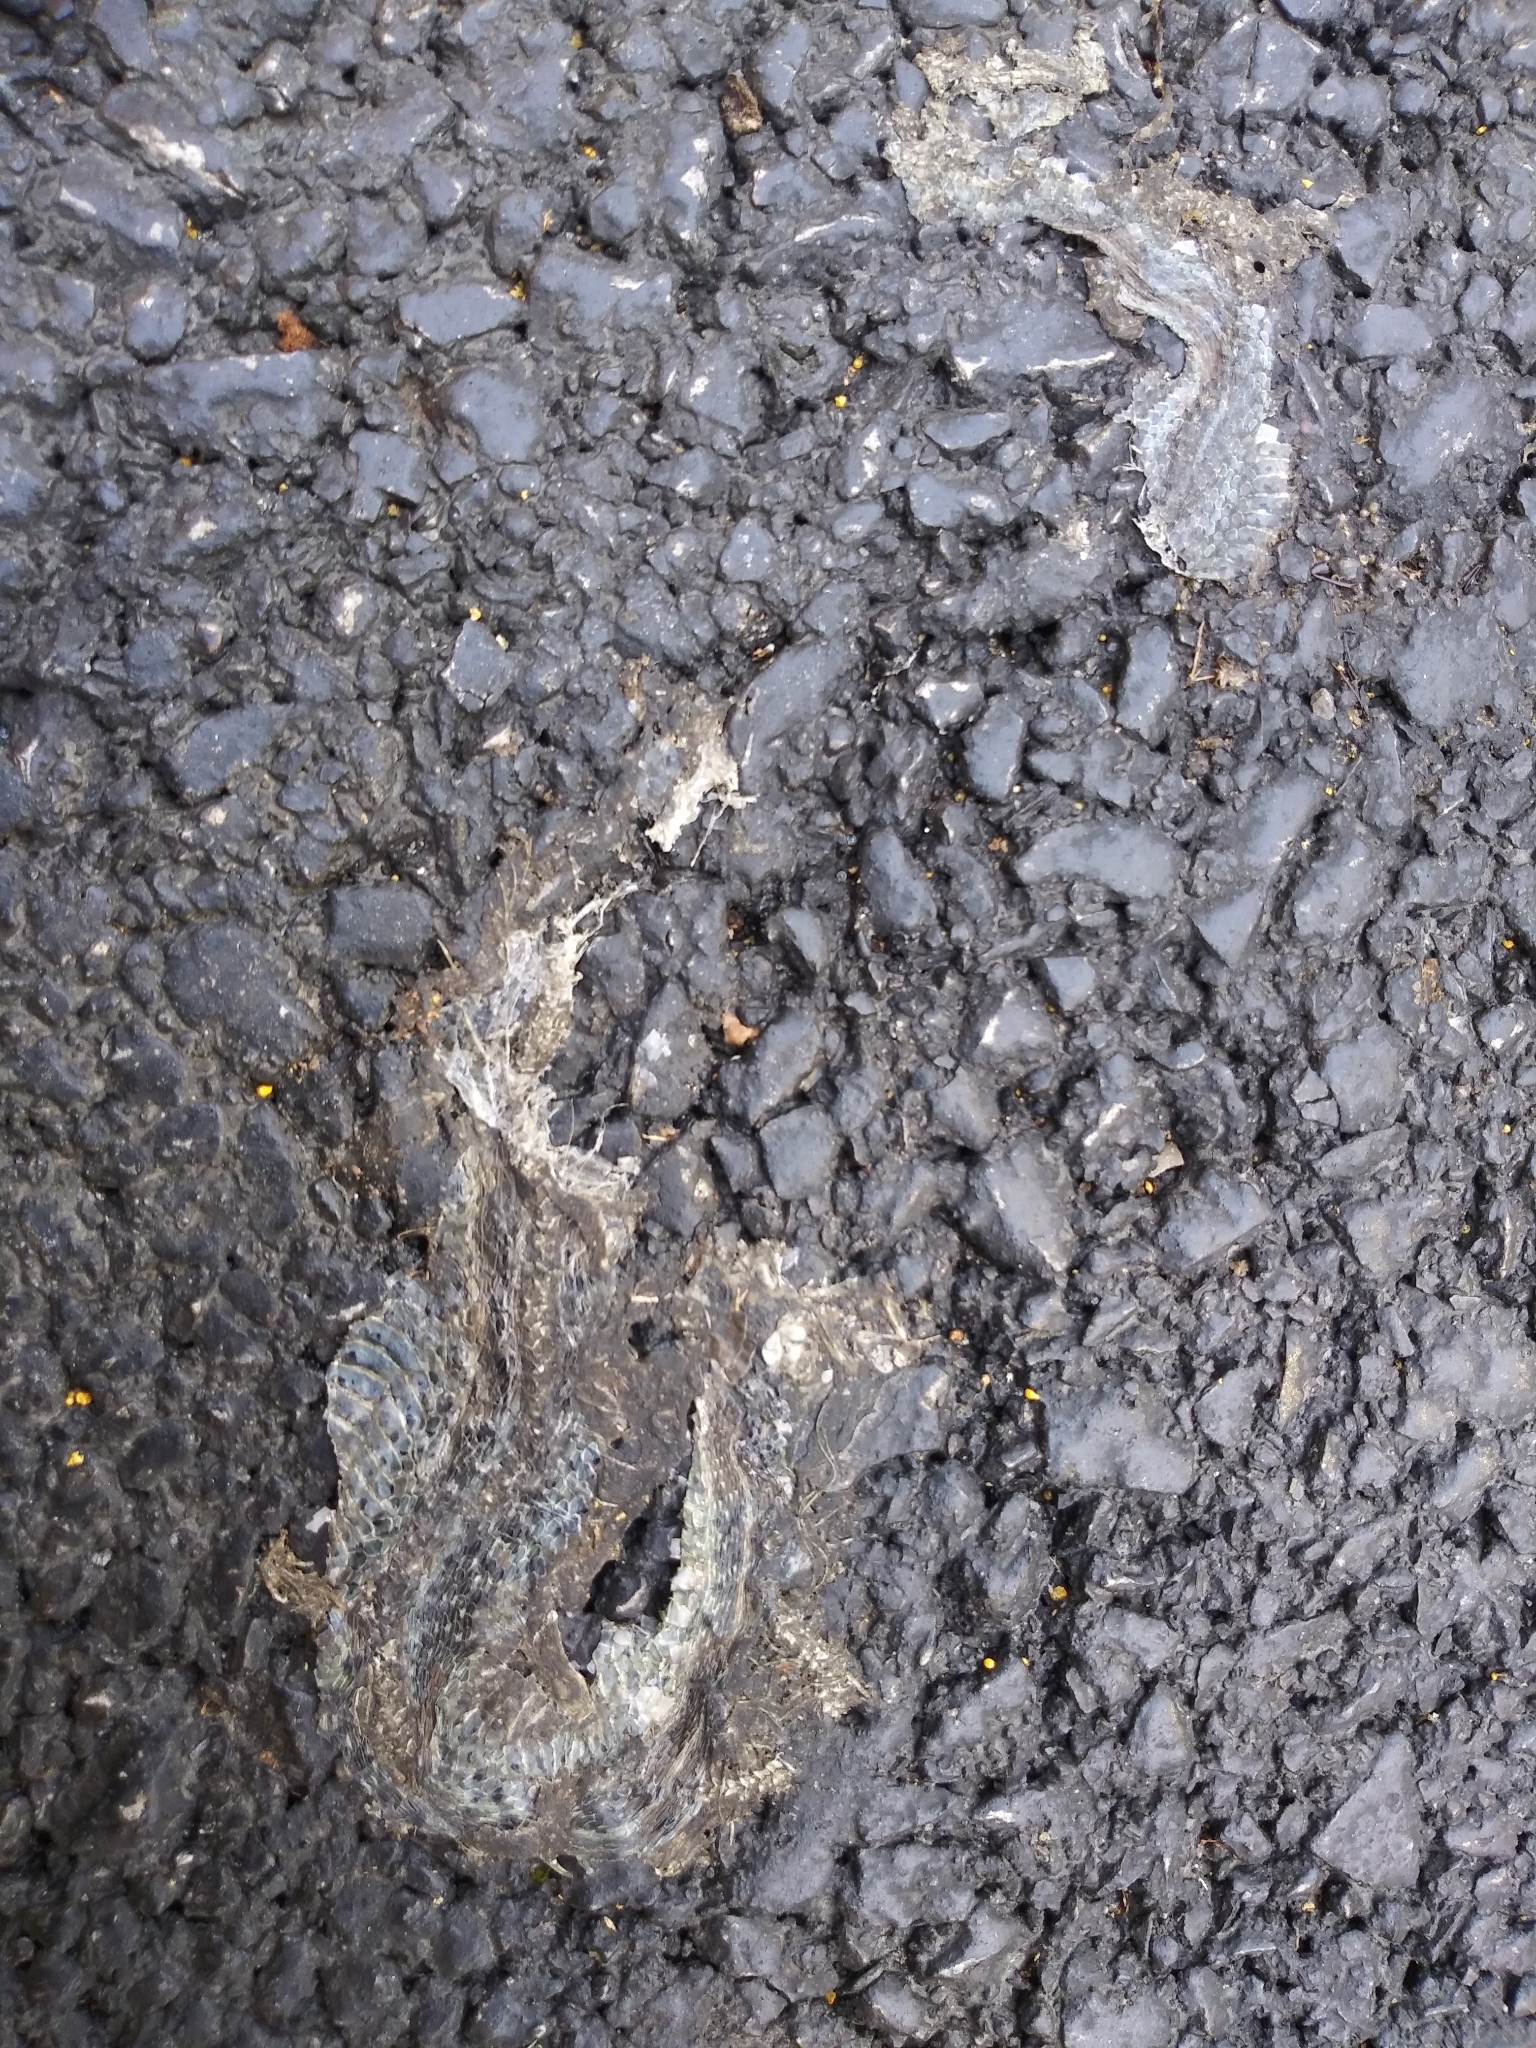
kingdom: Animalia
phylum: Chordata
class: Squamata
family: Colubridae
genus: Thamnophis
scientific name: Thamnophis sirtalis
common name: Common garter snake
